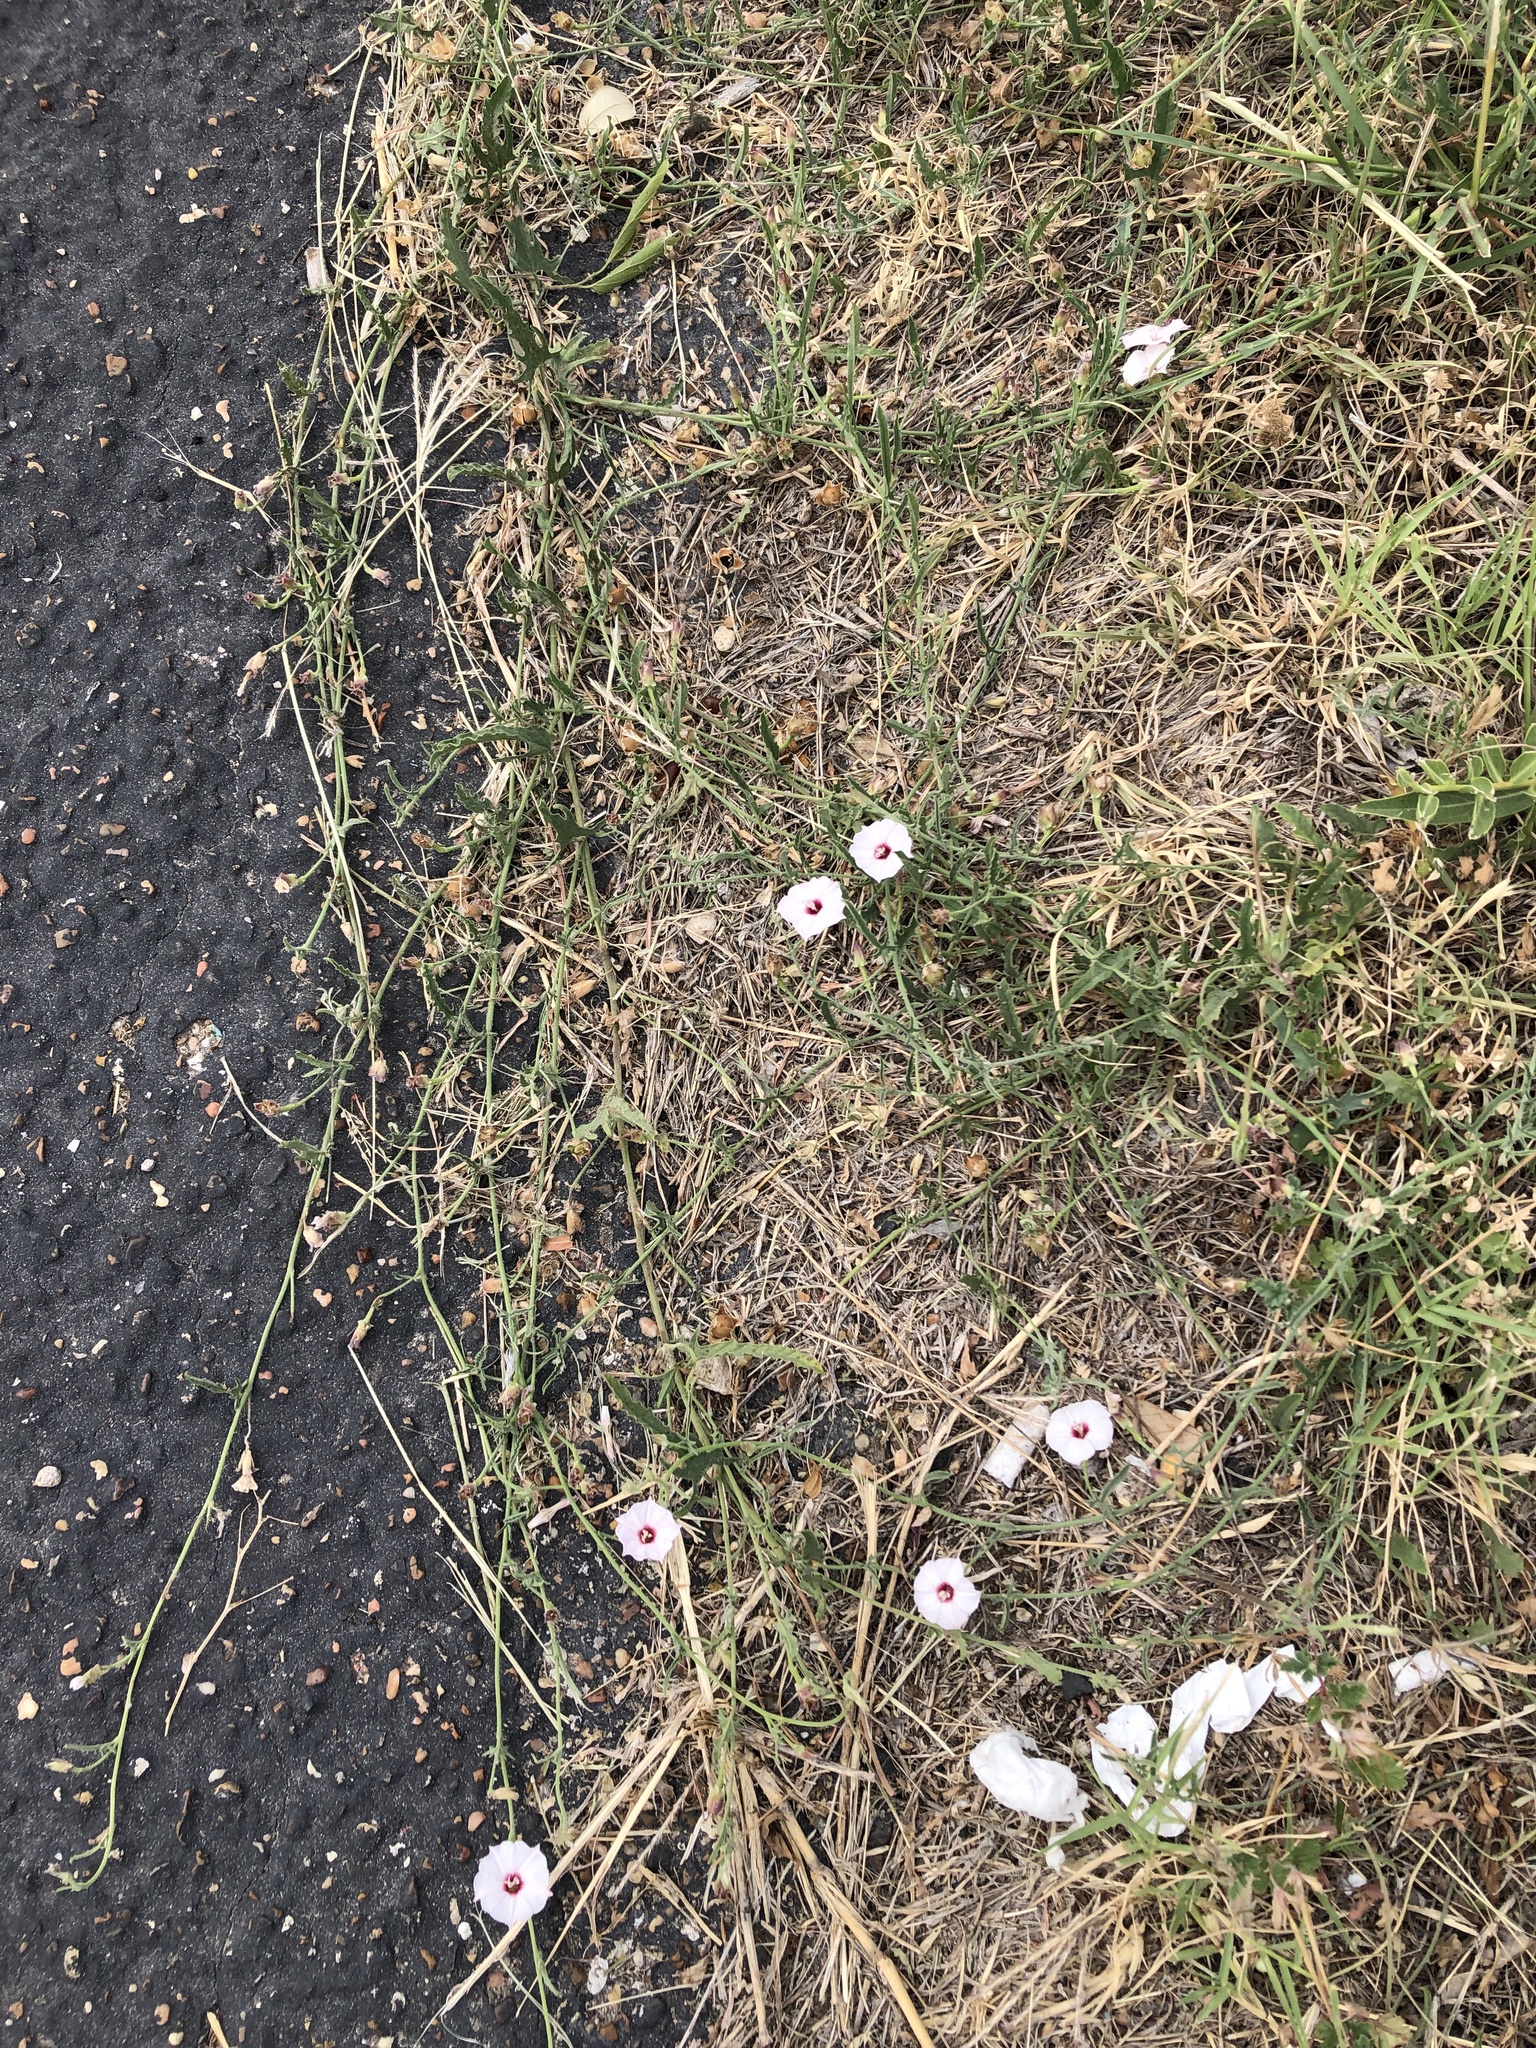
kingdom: Plantae
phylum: Tracheophyta
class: Magnoliopsida
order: Solanales
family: Convolvulaceae
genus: Convolvulus
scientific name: Convolvulus equitans
